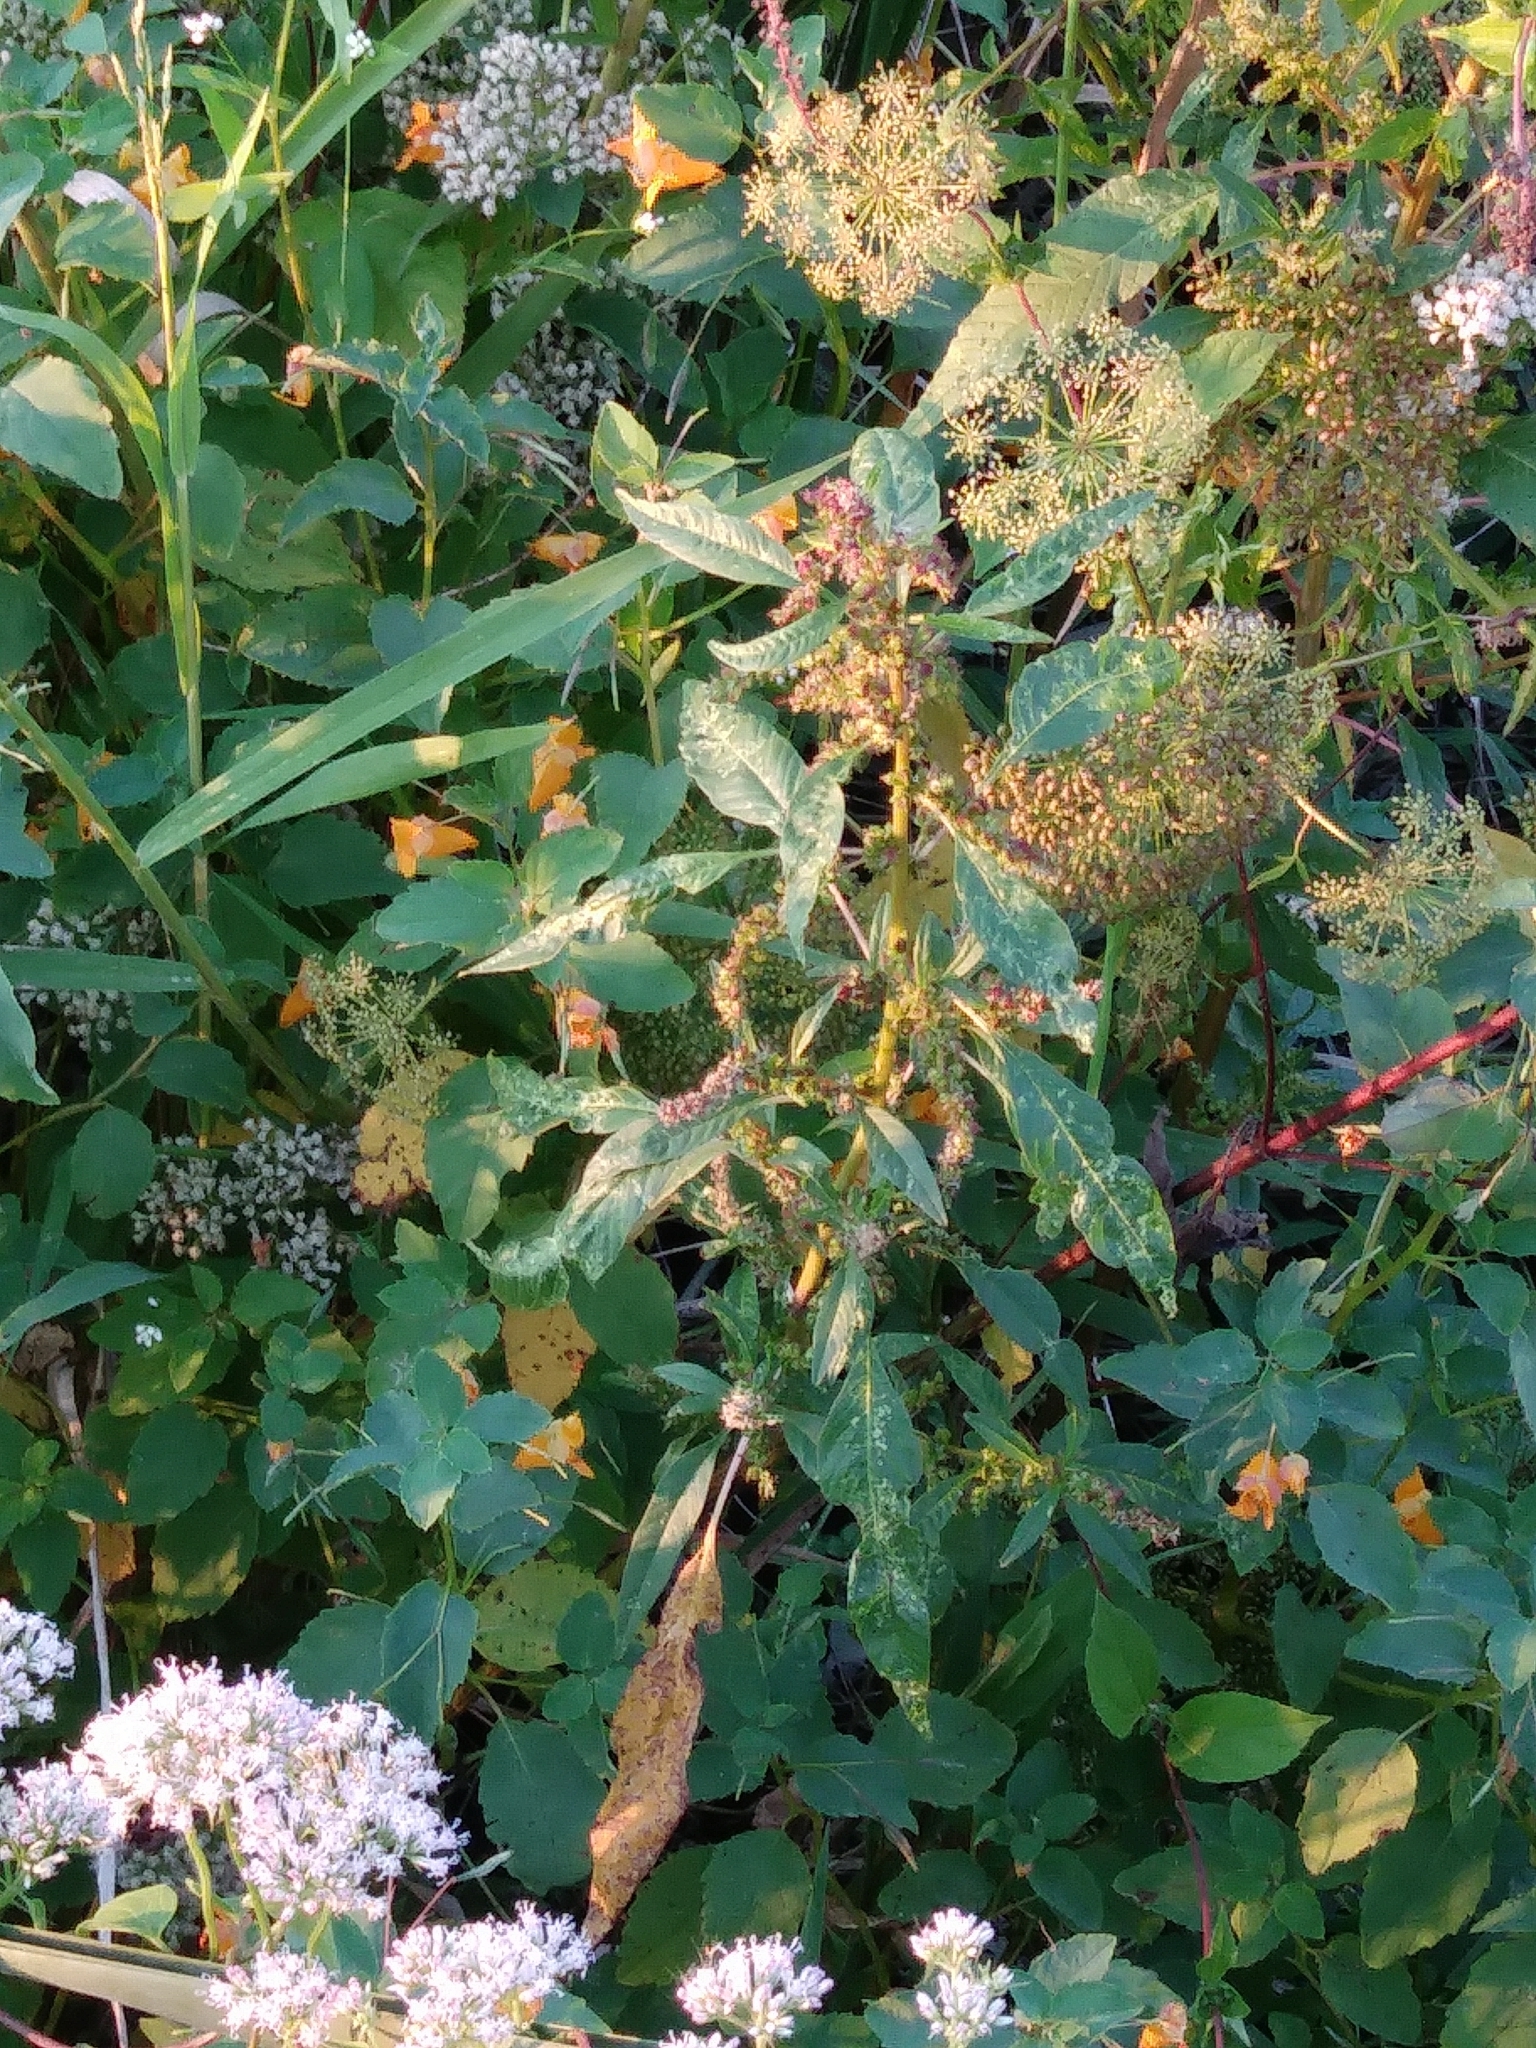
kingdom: Plantae
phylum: Tracheophyta
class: Magnoliopsida
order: Caryophyllales
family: Amaranthaceae
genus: Amaranthus
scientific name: Amaranthus cannabinus
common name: Salt-marsh water-hemp
